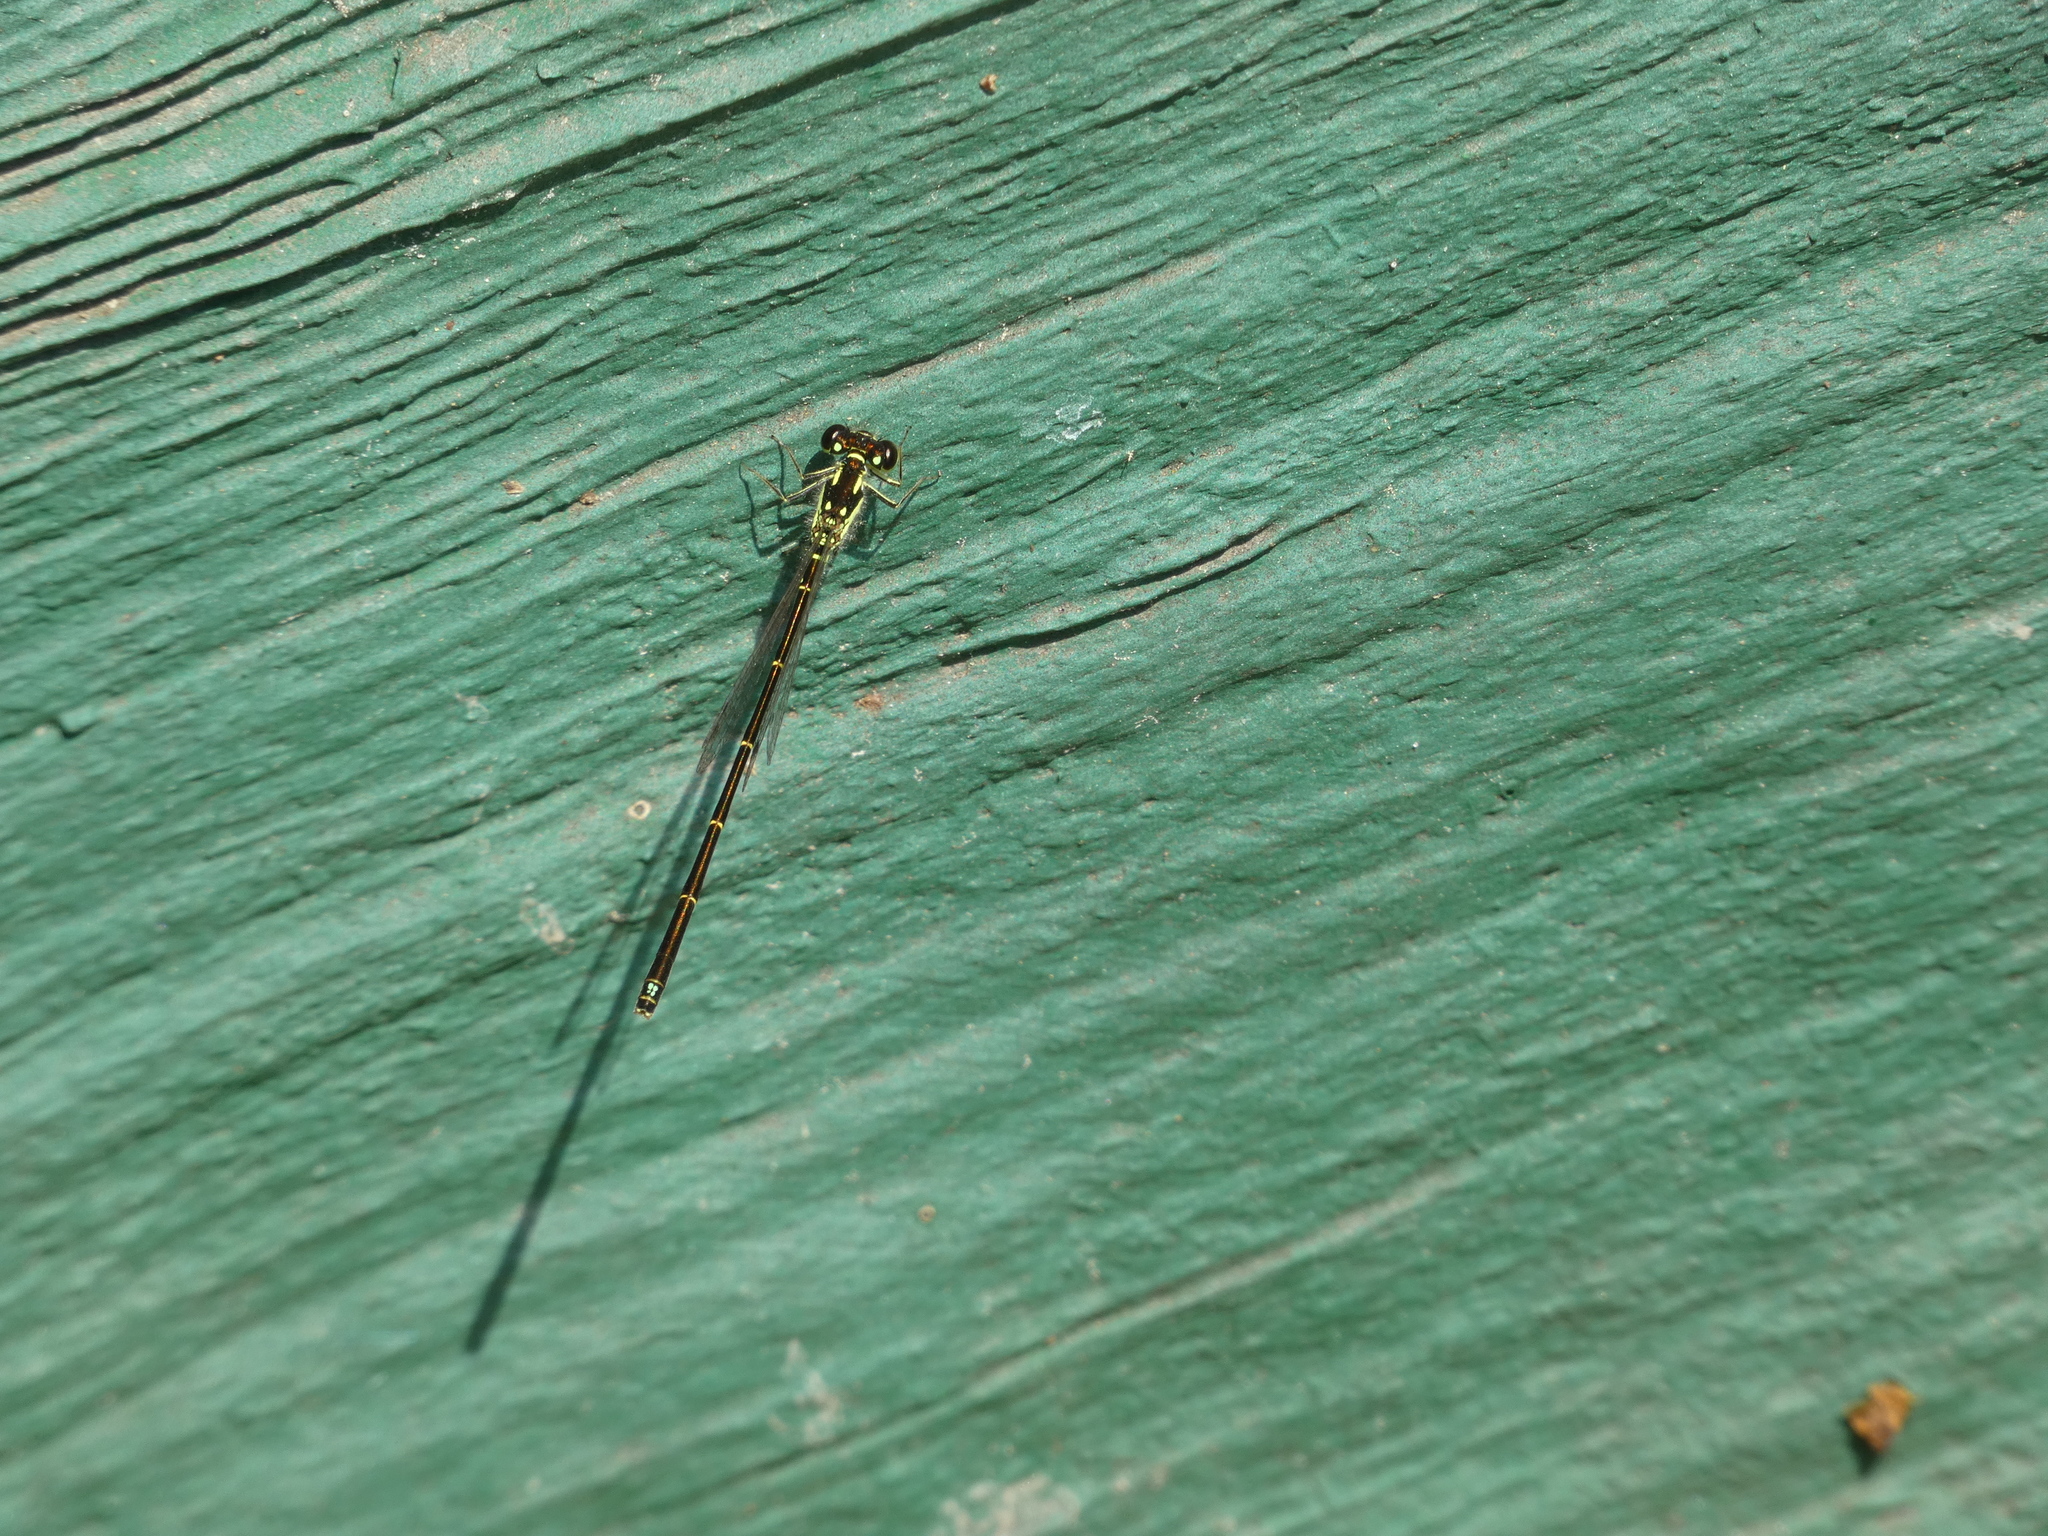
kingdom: Animalia
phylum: Arthropoda
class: Insecta
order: Odonata
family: Coenagrionidae
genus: Ischnura
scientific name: Ischnura posita
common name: Fragile forktail
